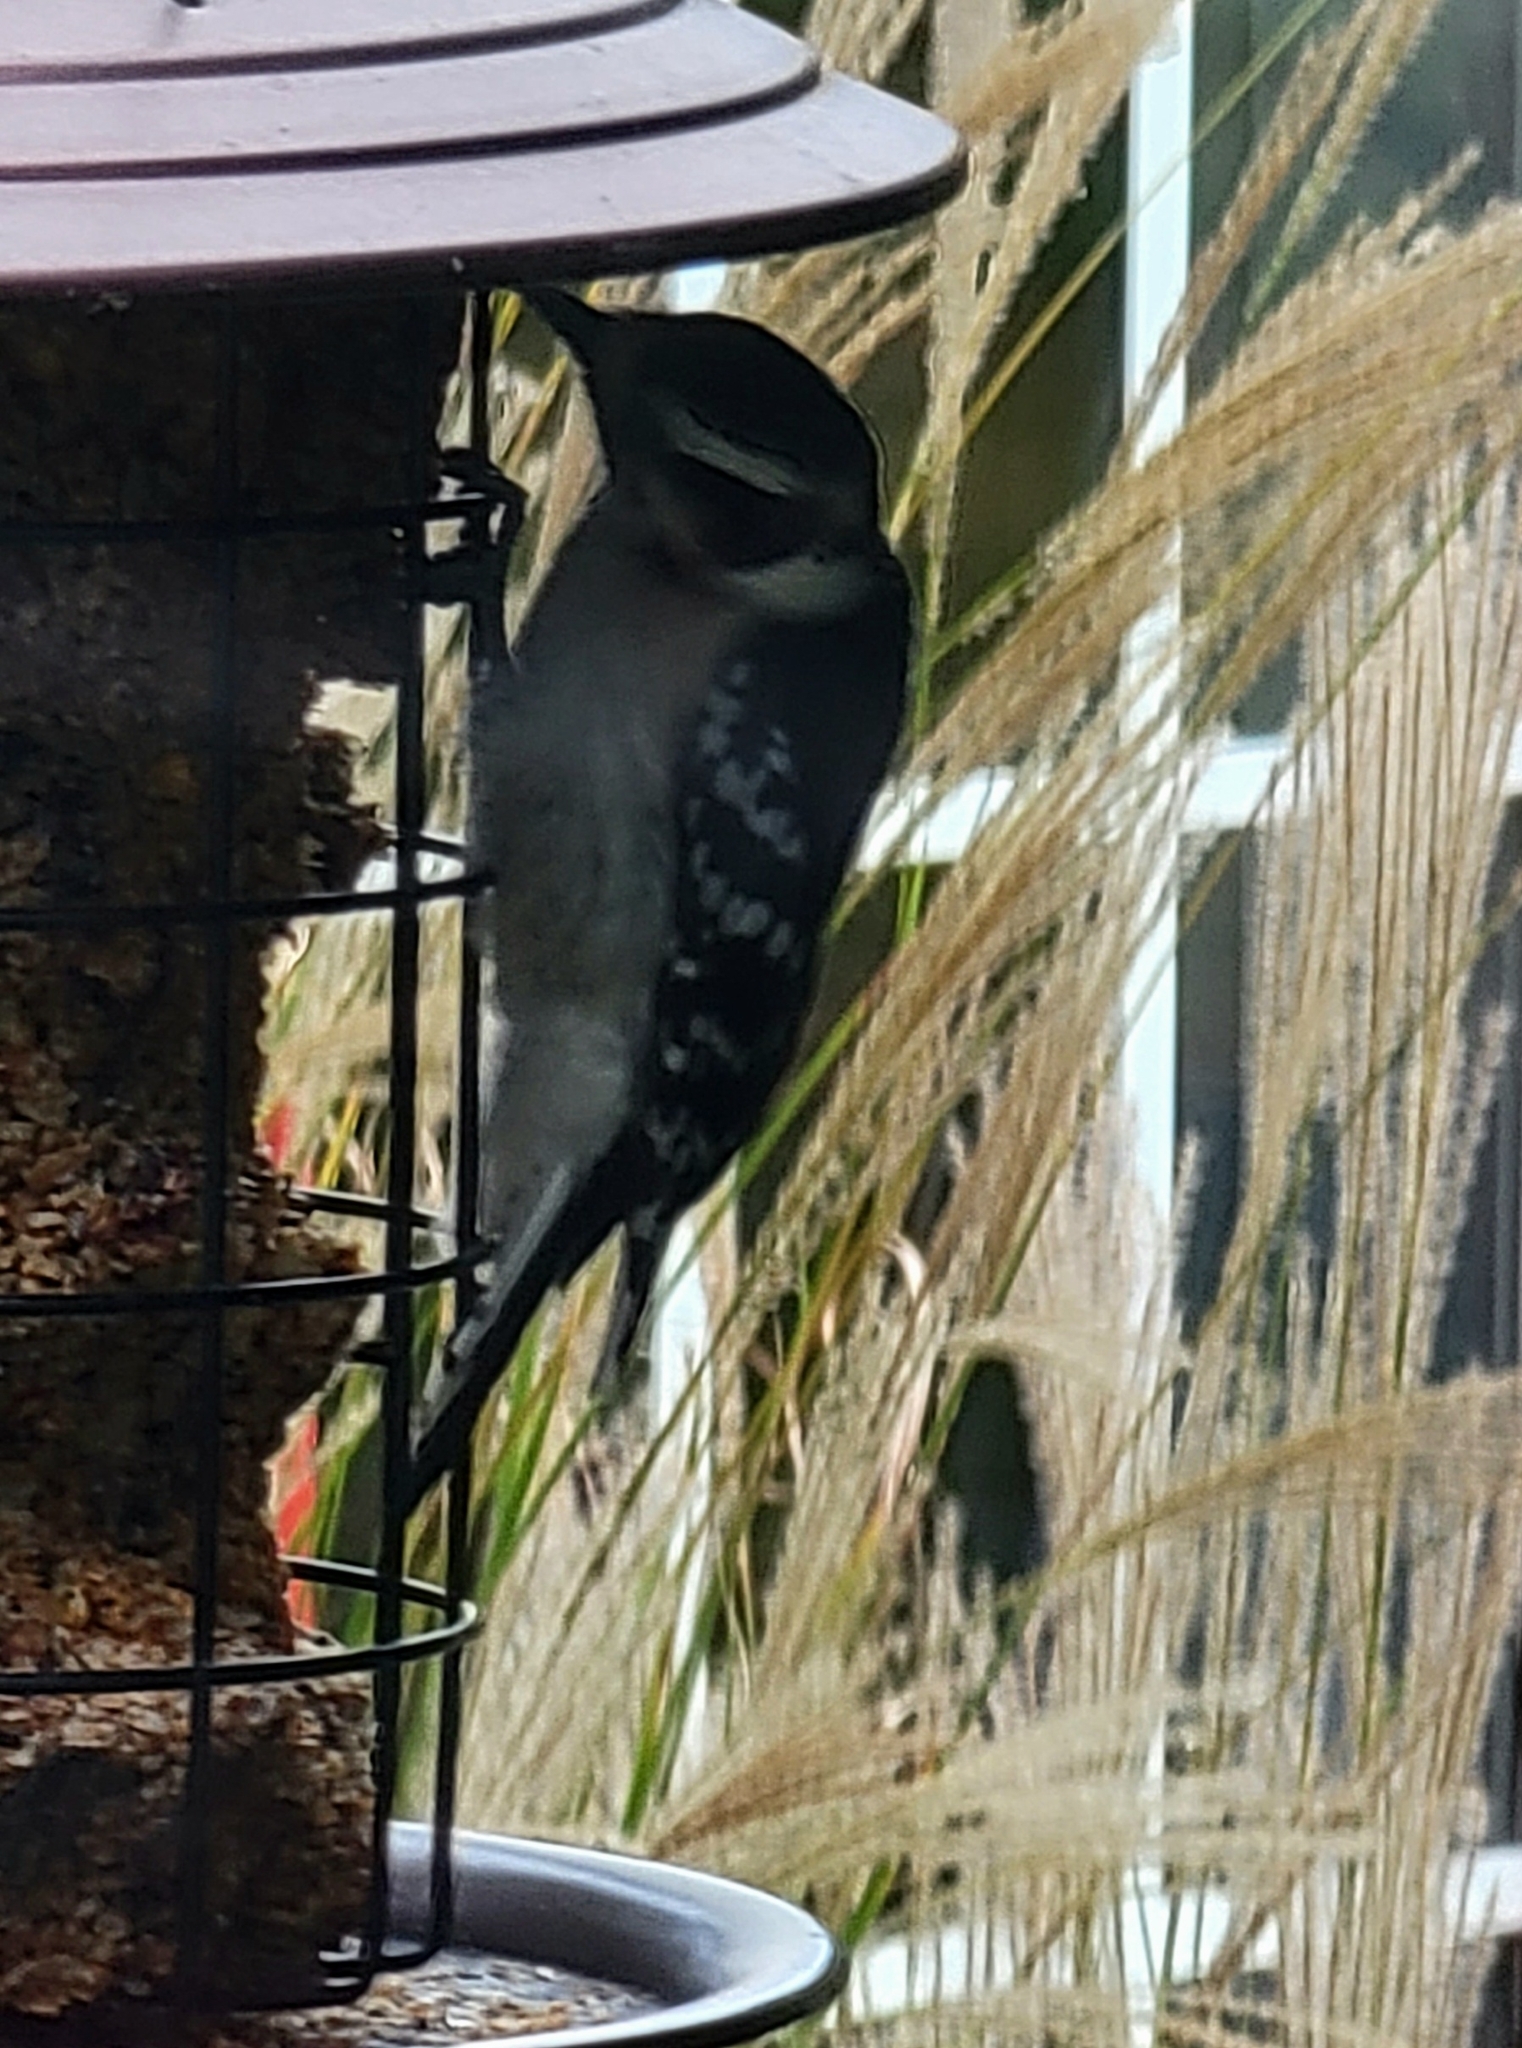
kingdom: Animalia
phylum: Chordata
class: Aves
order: Piciformes
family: Picidae
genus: Dryobates
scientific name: Dryobates pubescens
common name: Downy woodpecker
